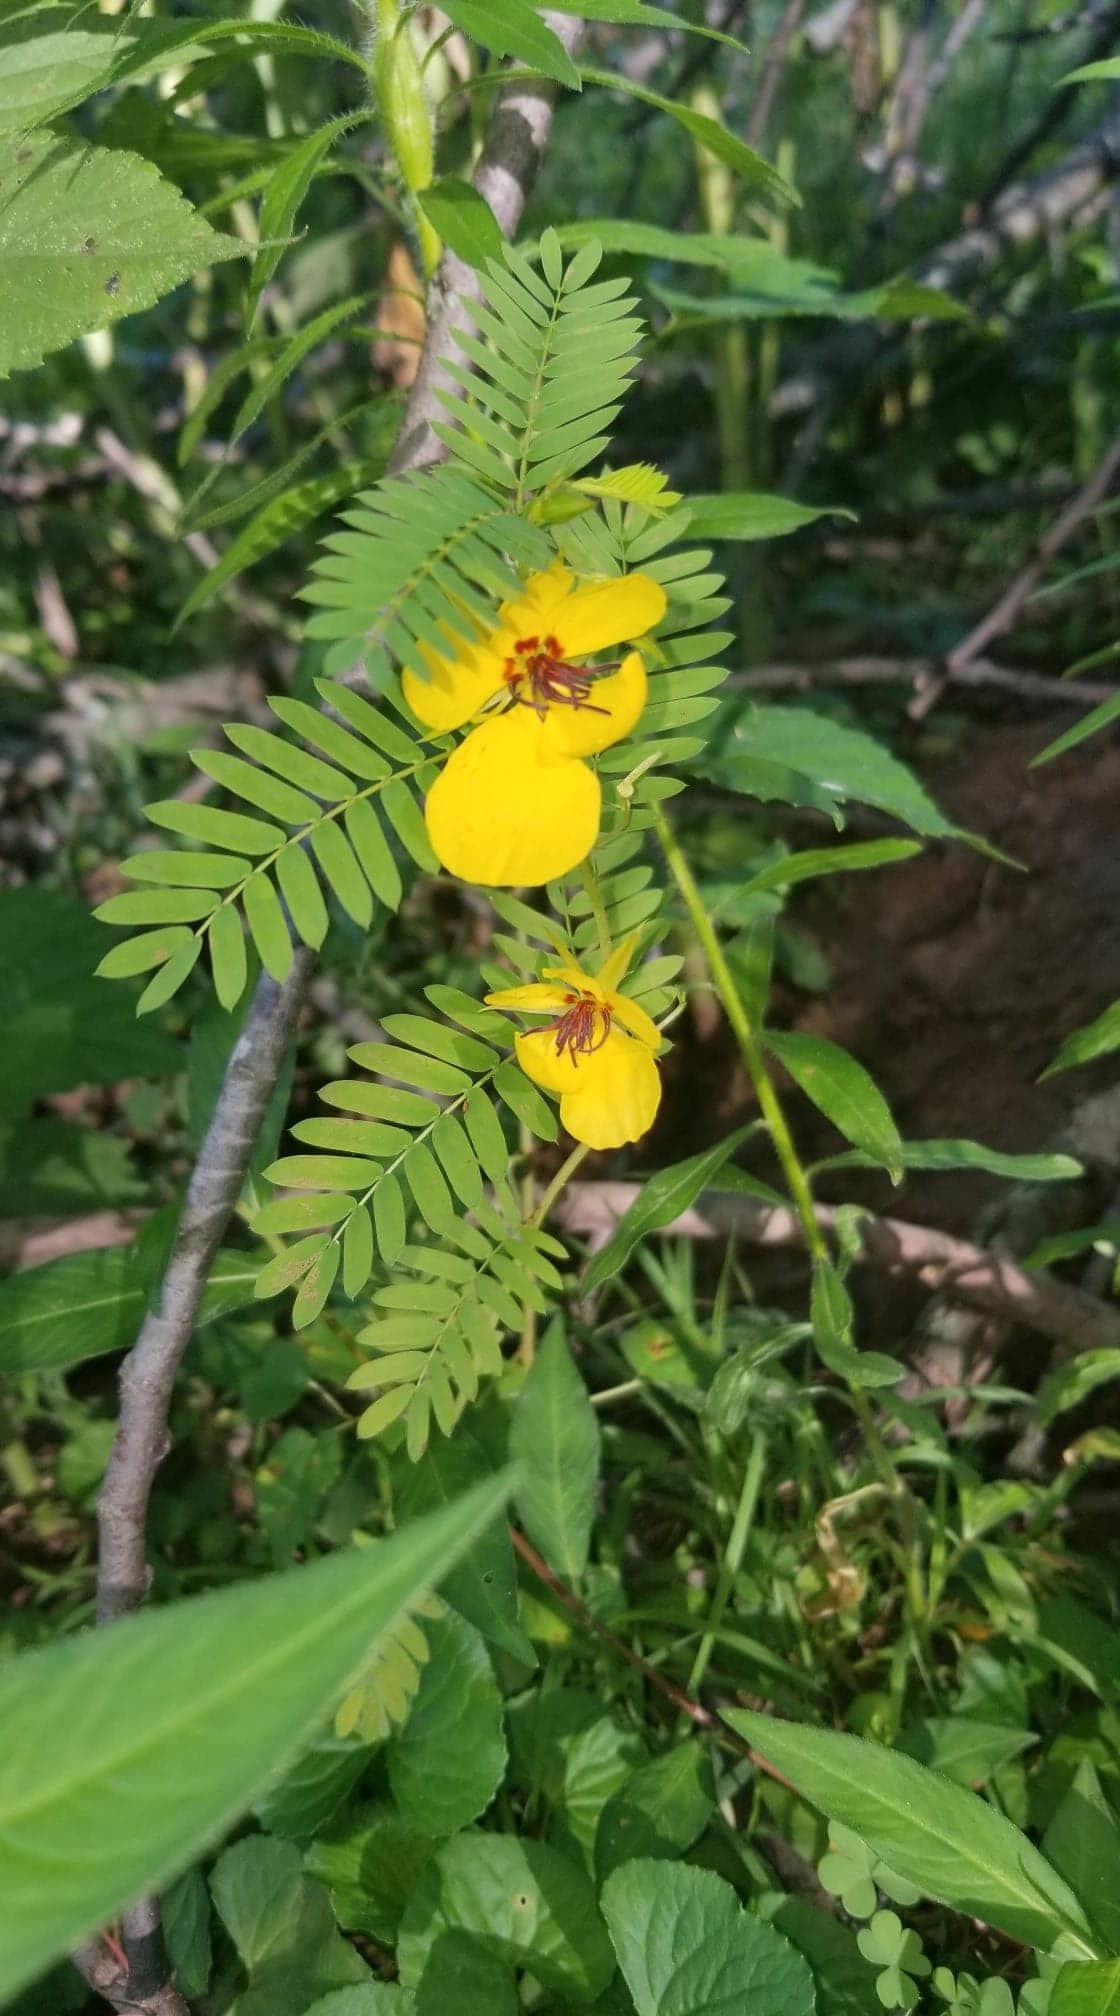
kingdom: Plantae
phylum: Tracheophyta
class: Magnoliopsida
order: Fabales
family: Fabaceae
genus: Chamaecrista
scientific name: Chamaecrista fasciculata
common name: Golden cassia
